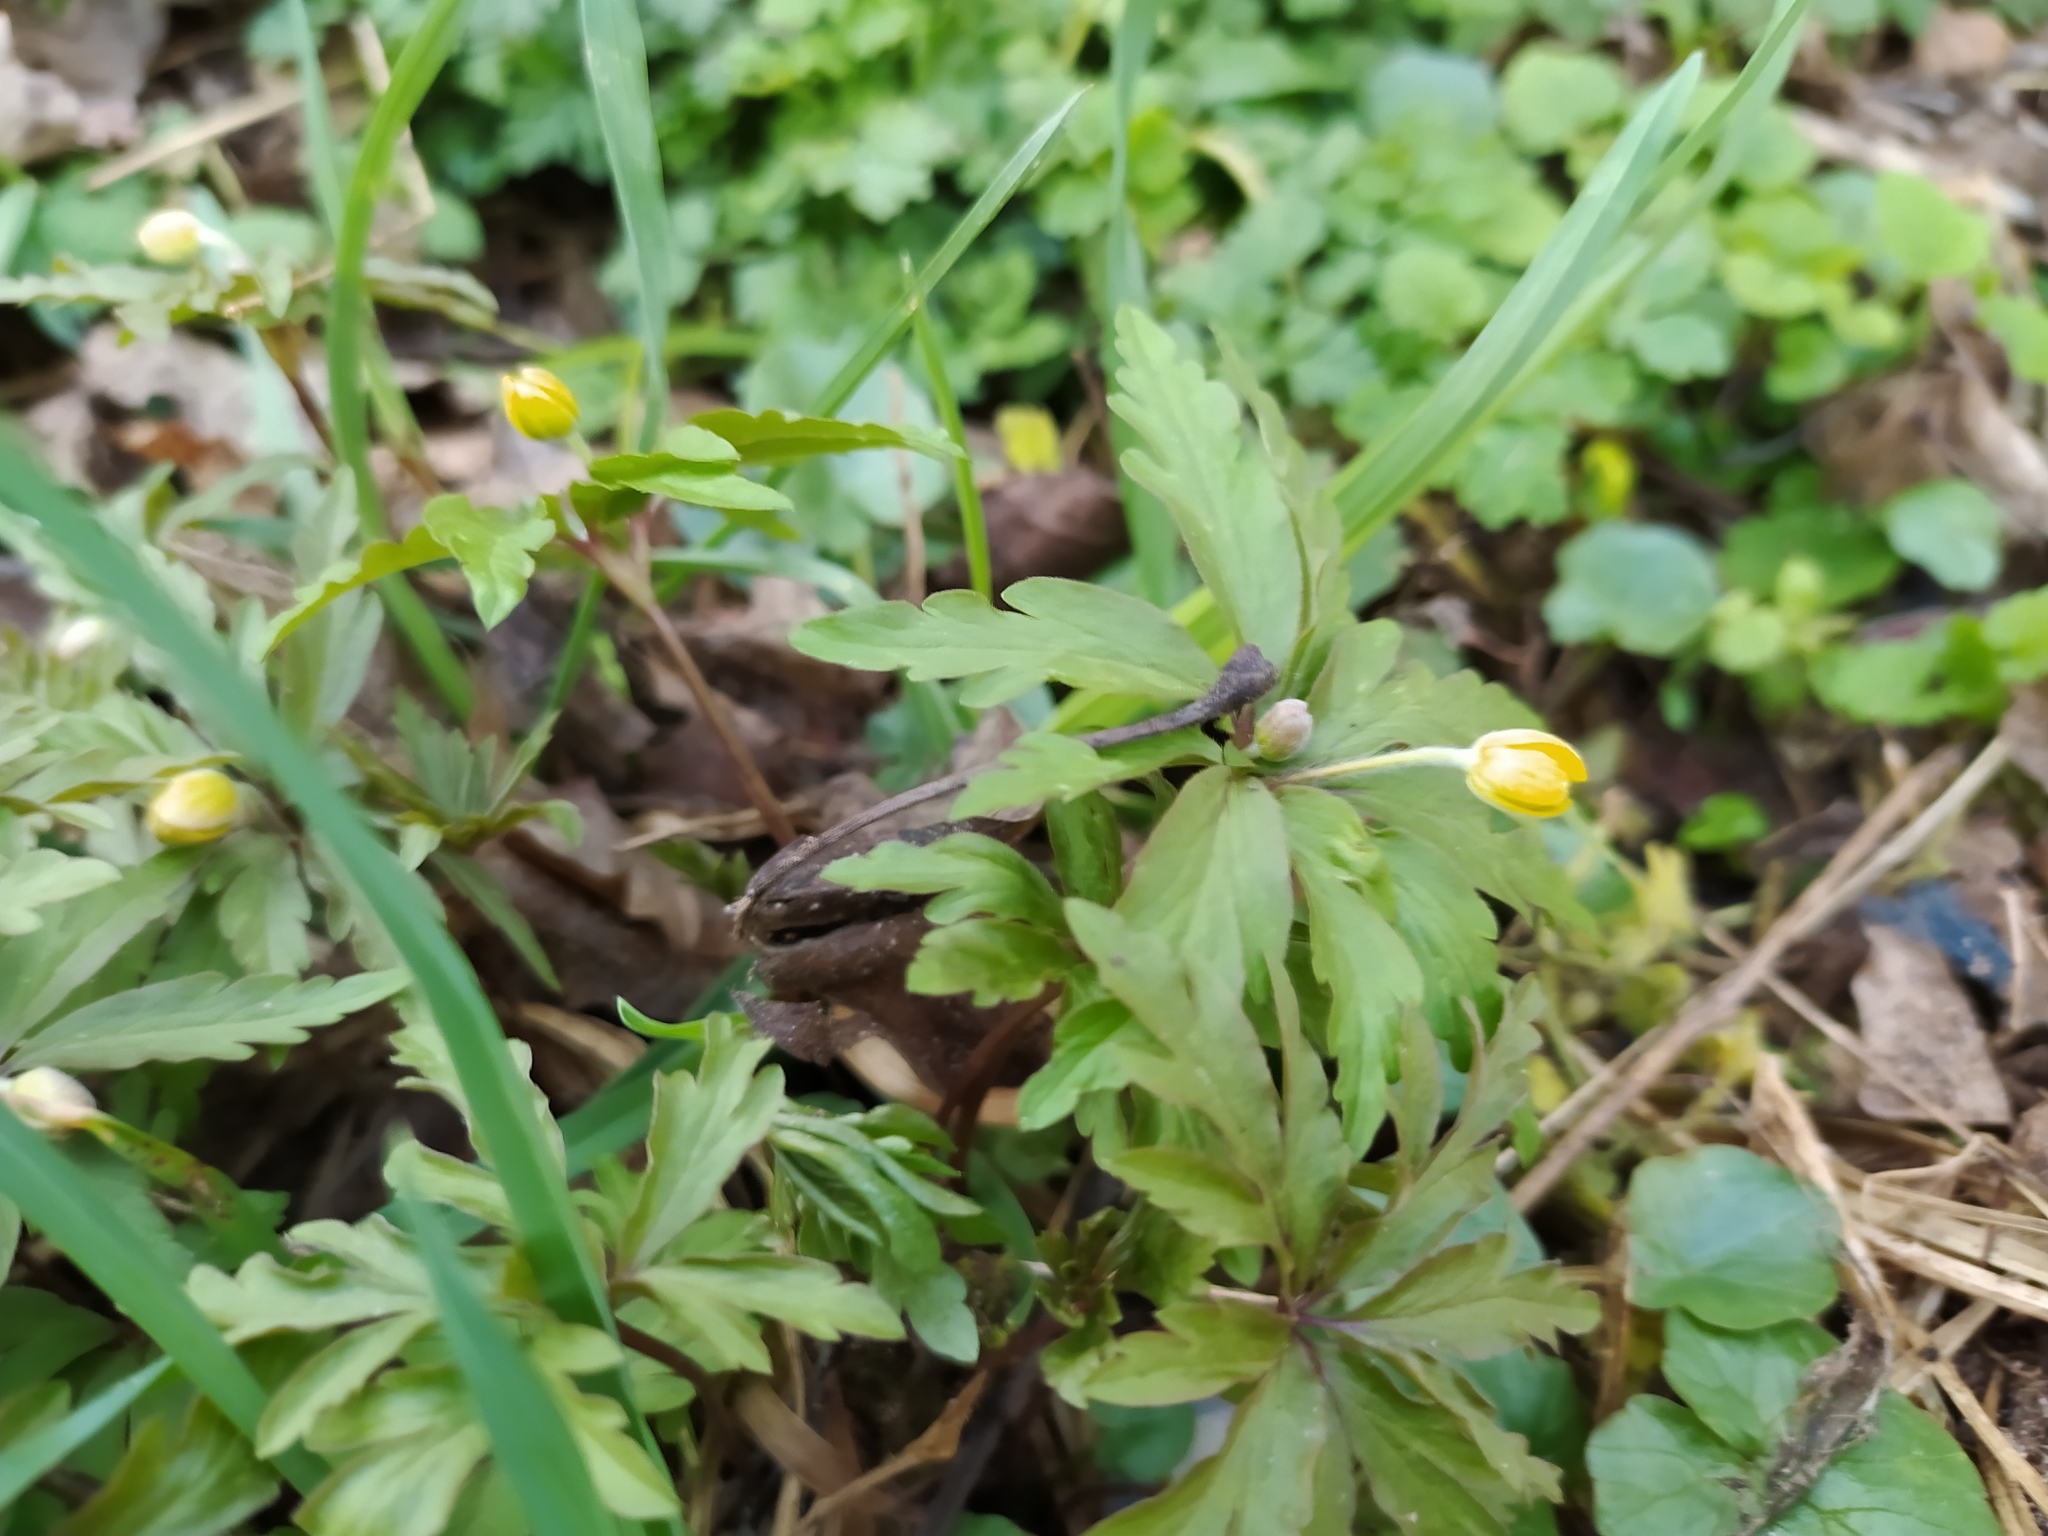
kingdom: Plantae
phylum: Tracheophyta
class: Magnoliopsida
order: Ranunculales
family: Ranunculaceae
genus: Anemone
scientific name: Anemone ranunculoides
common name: Yellow anemone
